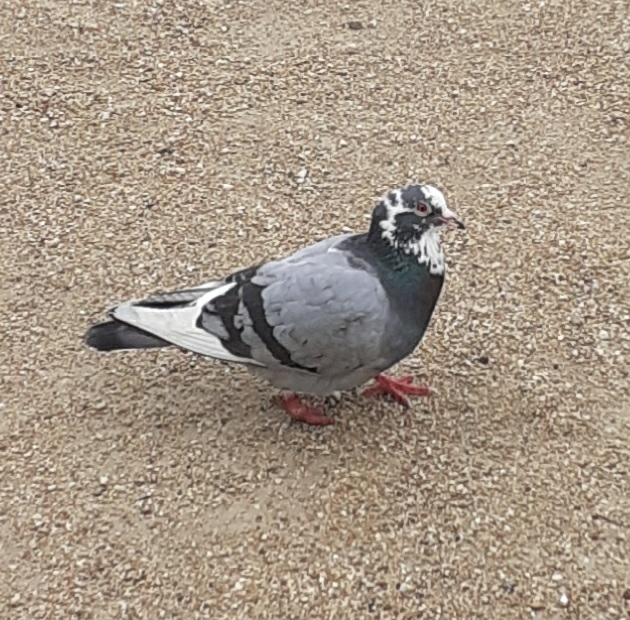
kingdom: Animalia
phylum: Chordata
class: Aves
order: Columbiformes
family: Columbidae
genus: Columba
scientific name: Columba livia
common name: Rock pigeon
